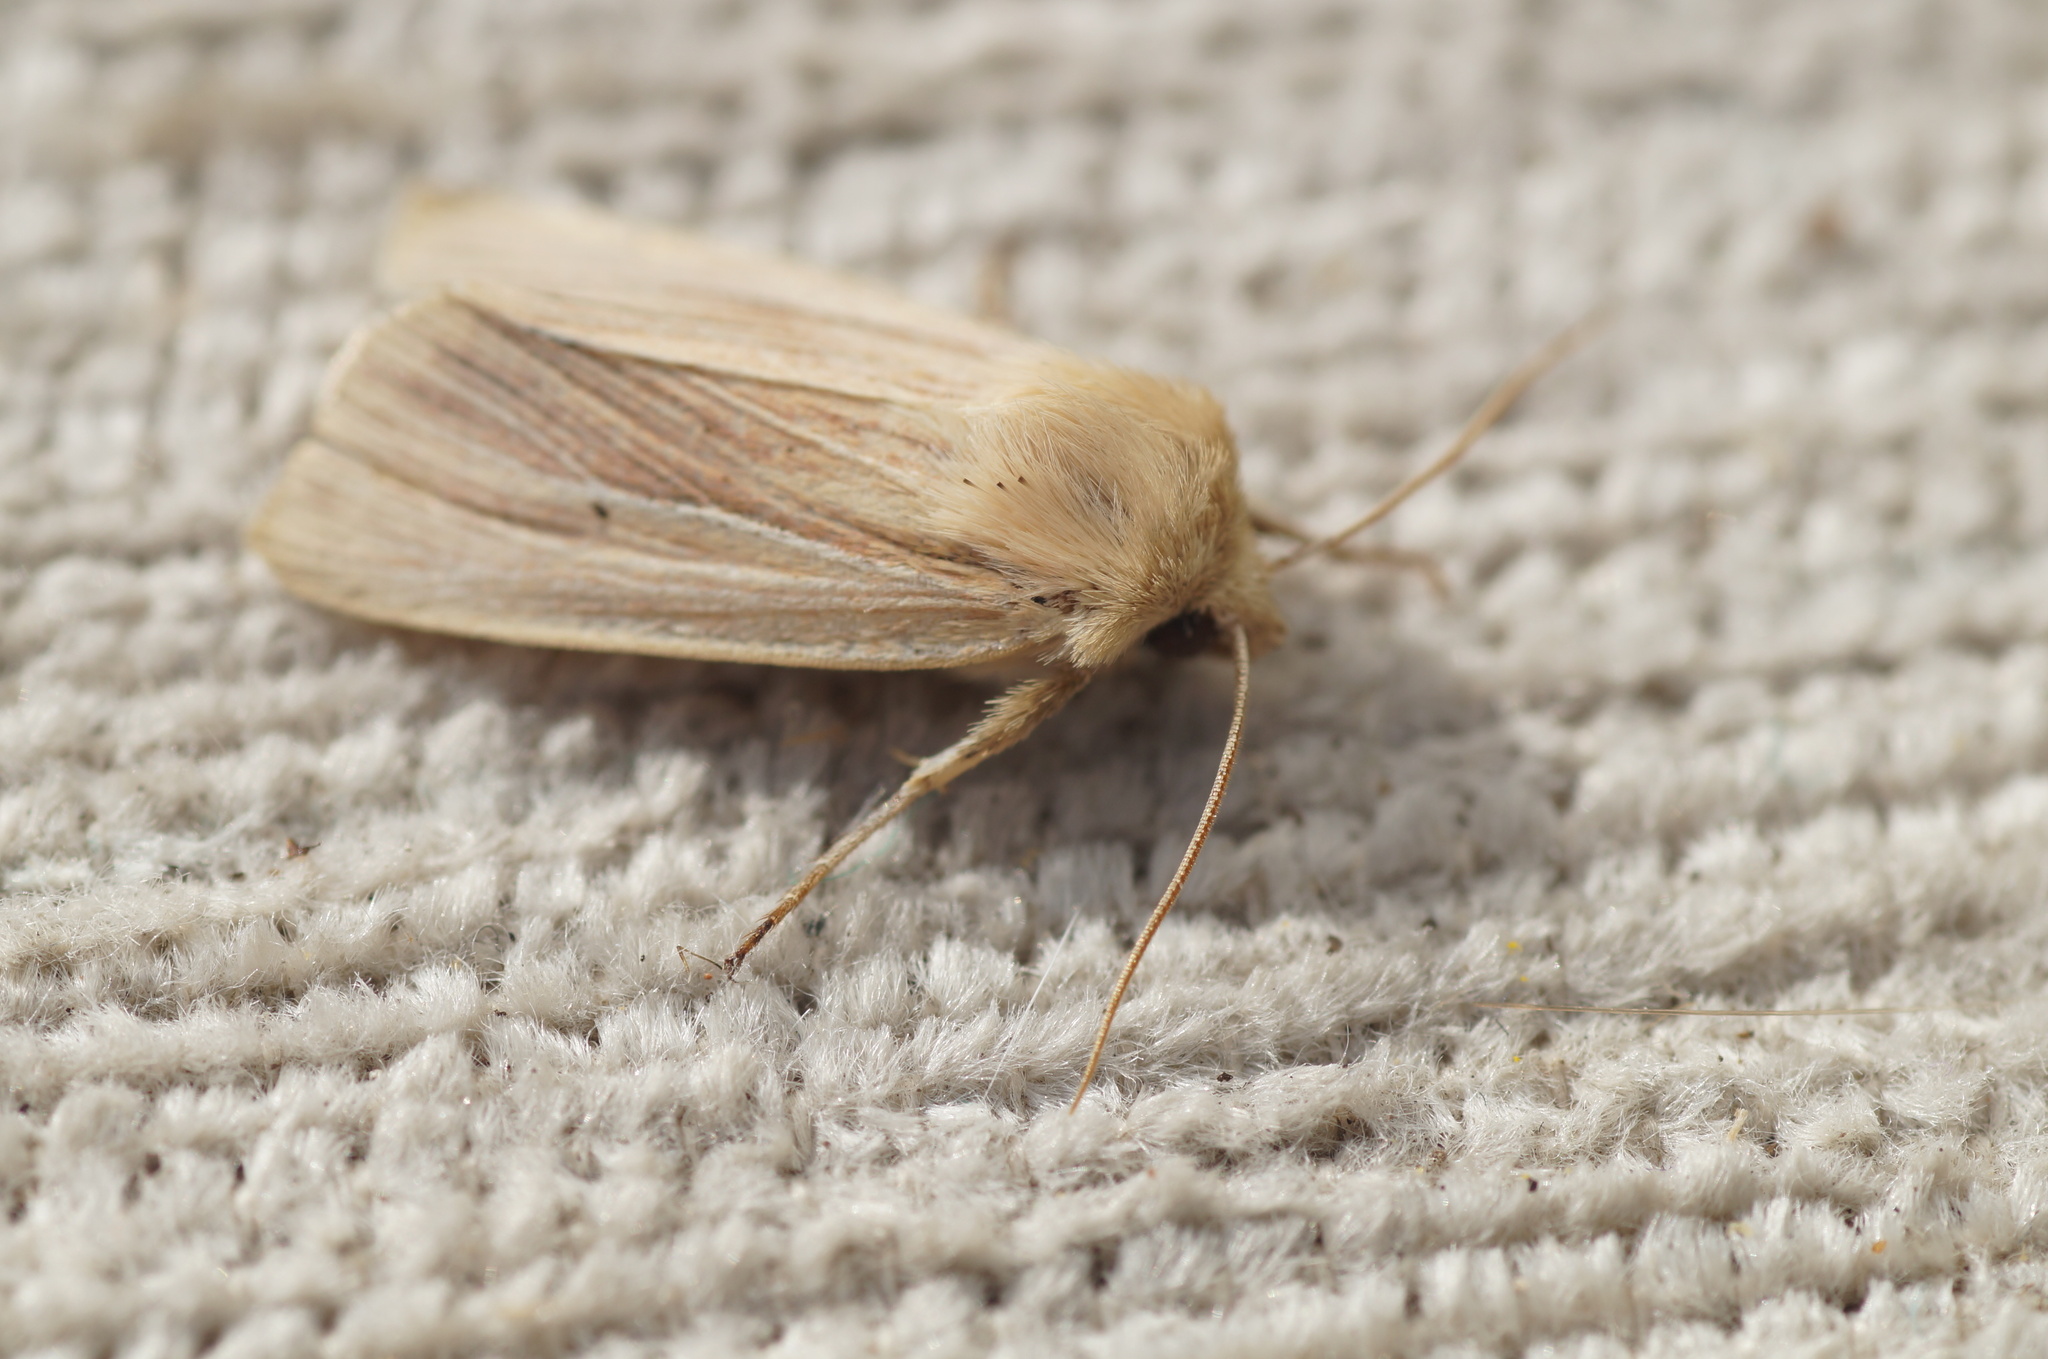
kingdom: Animalia
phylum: Arthropoda
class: Insecta
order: Lepidoptera
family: Noctuidae
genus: Mythimna
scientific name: Mythimna impura
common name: Smoky wainscot
